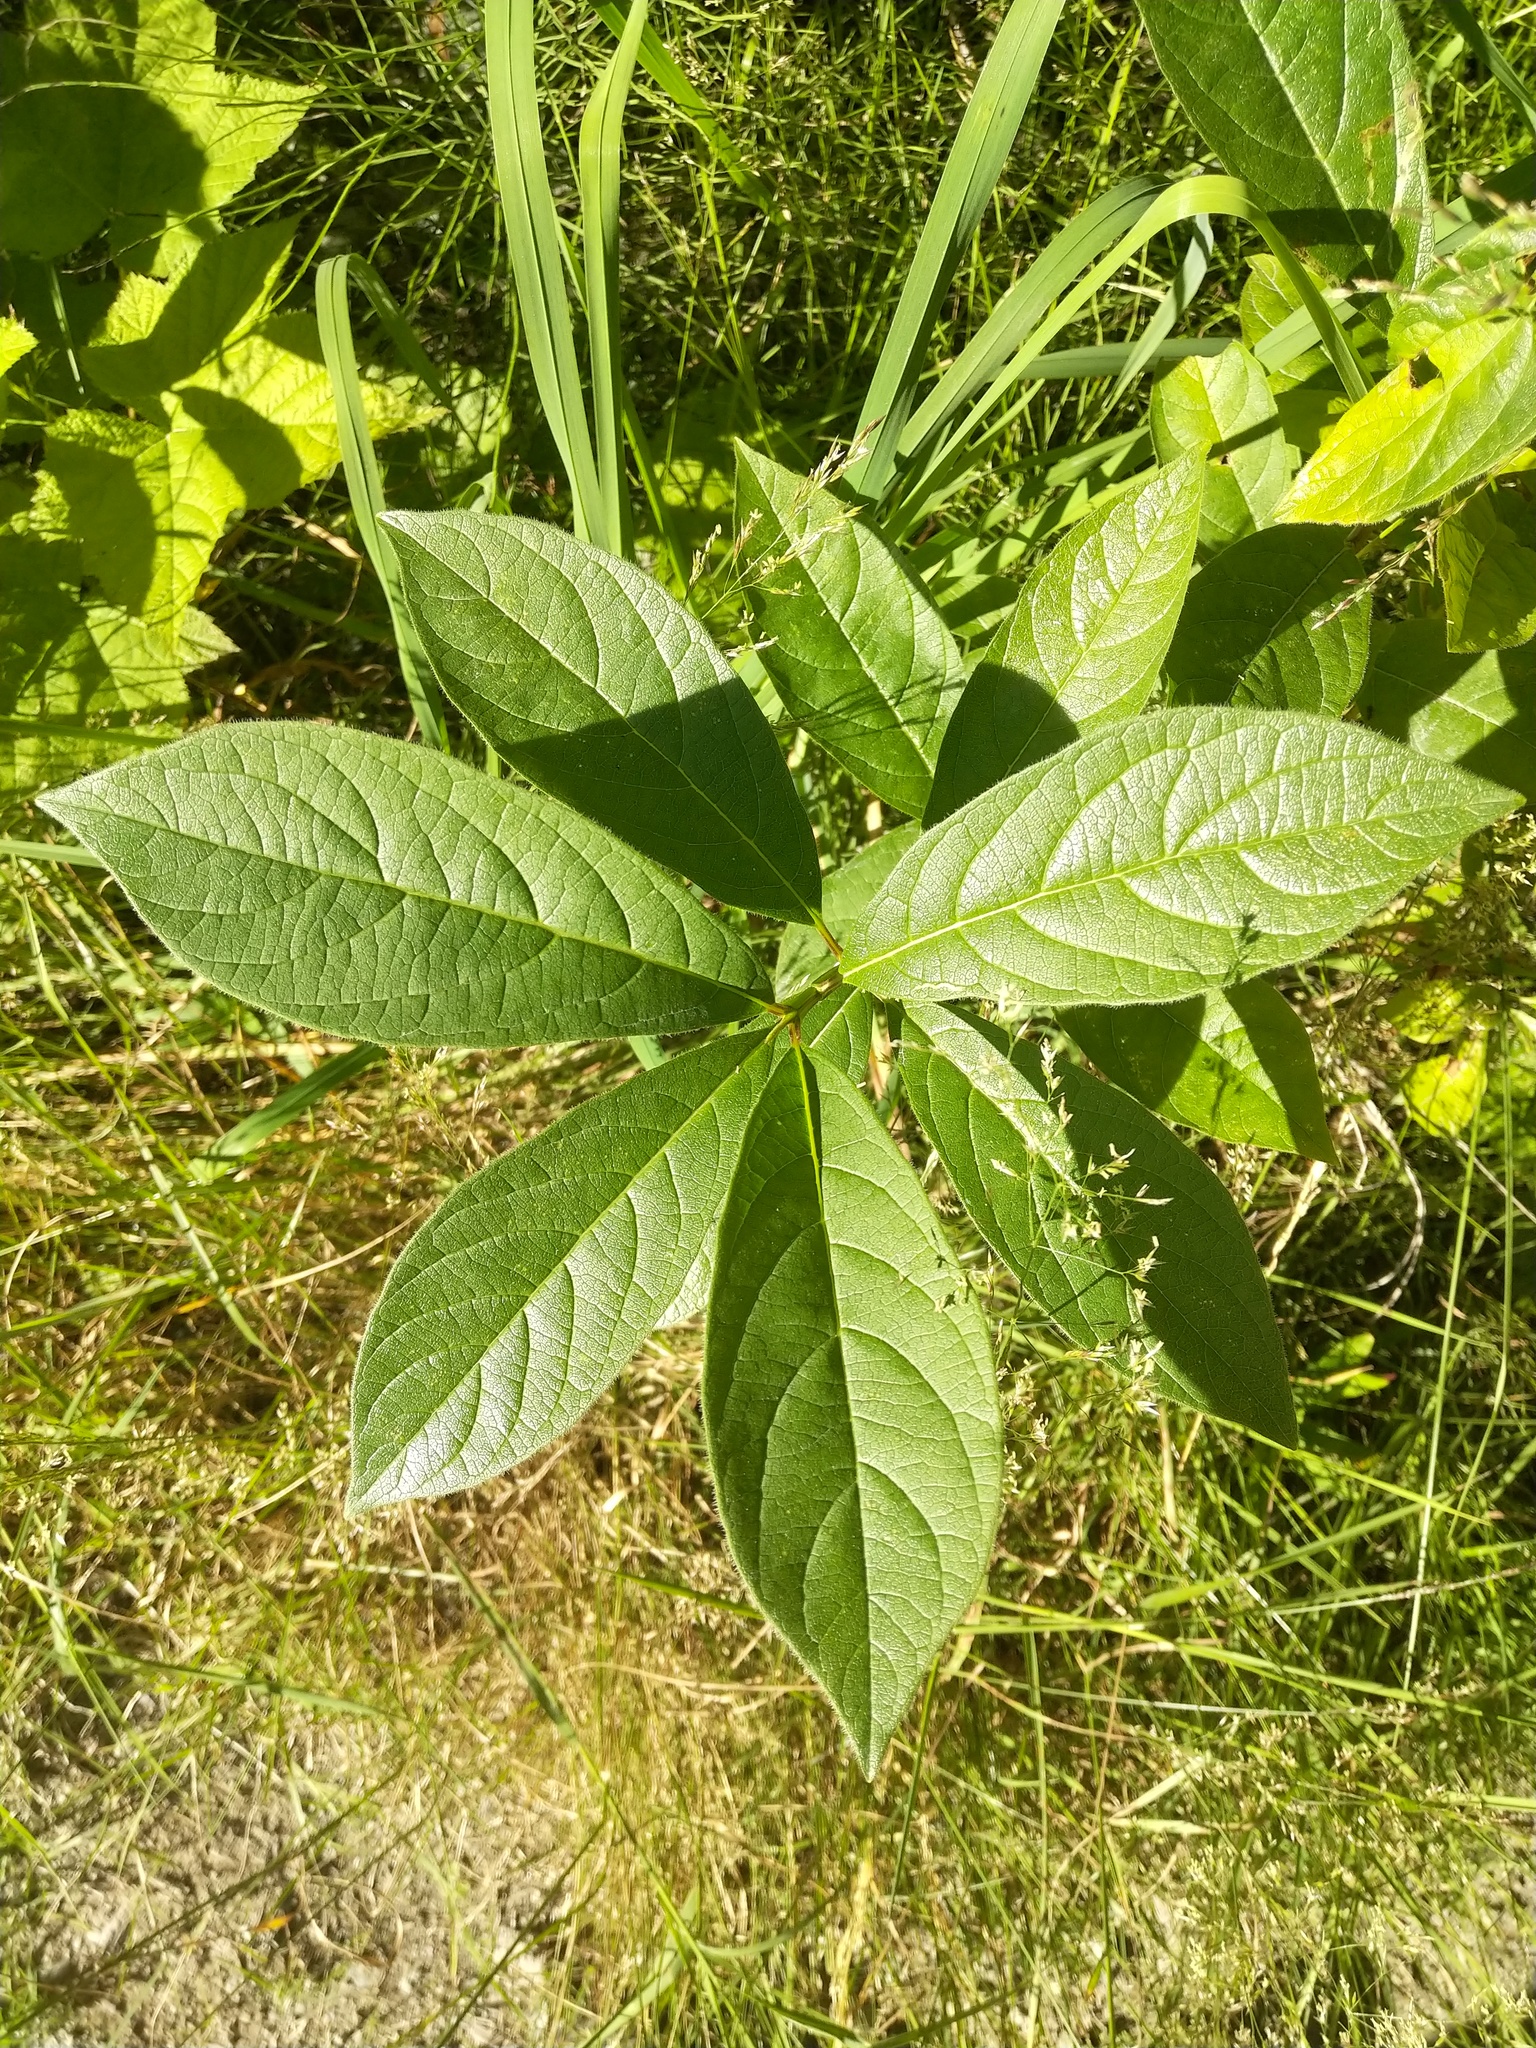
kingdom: Plantae
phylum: Tracheophyta
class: Magnoliopsida
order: Dipsacales
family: Caprifoliaceae
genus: Lonicera
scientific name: Lonicera involucrata
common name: Californian honeysuckle
